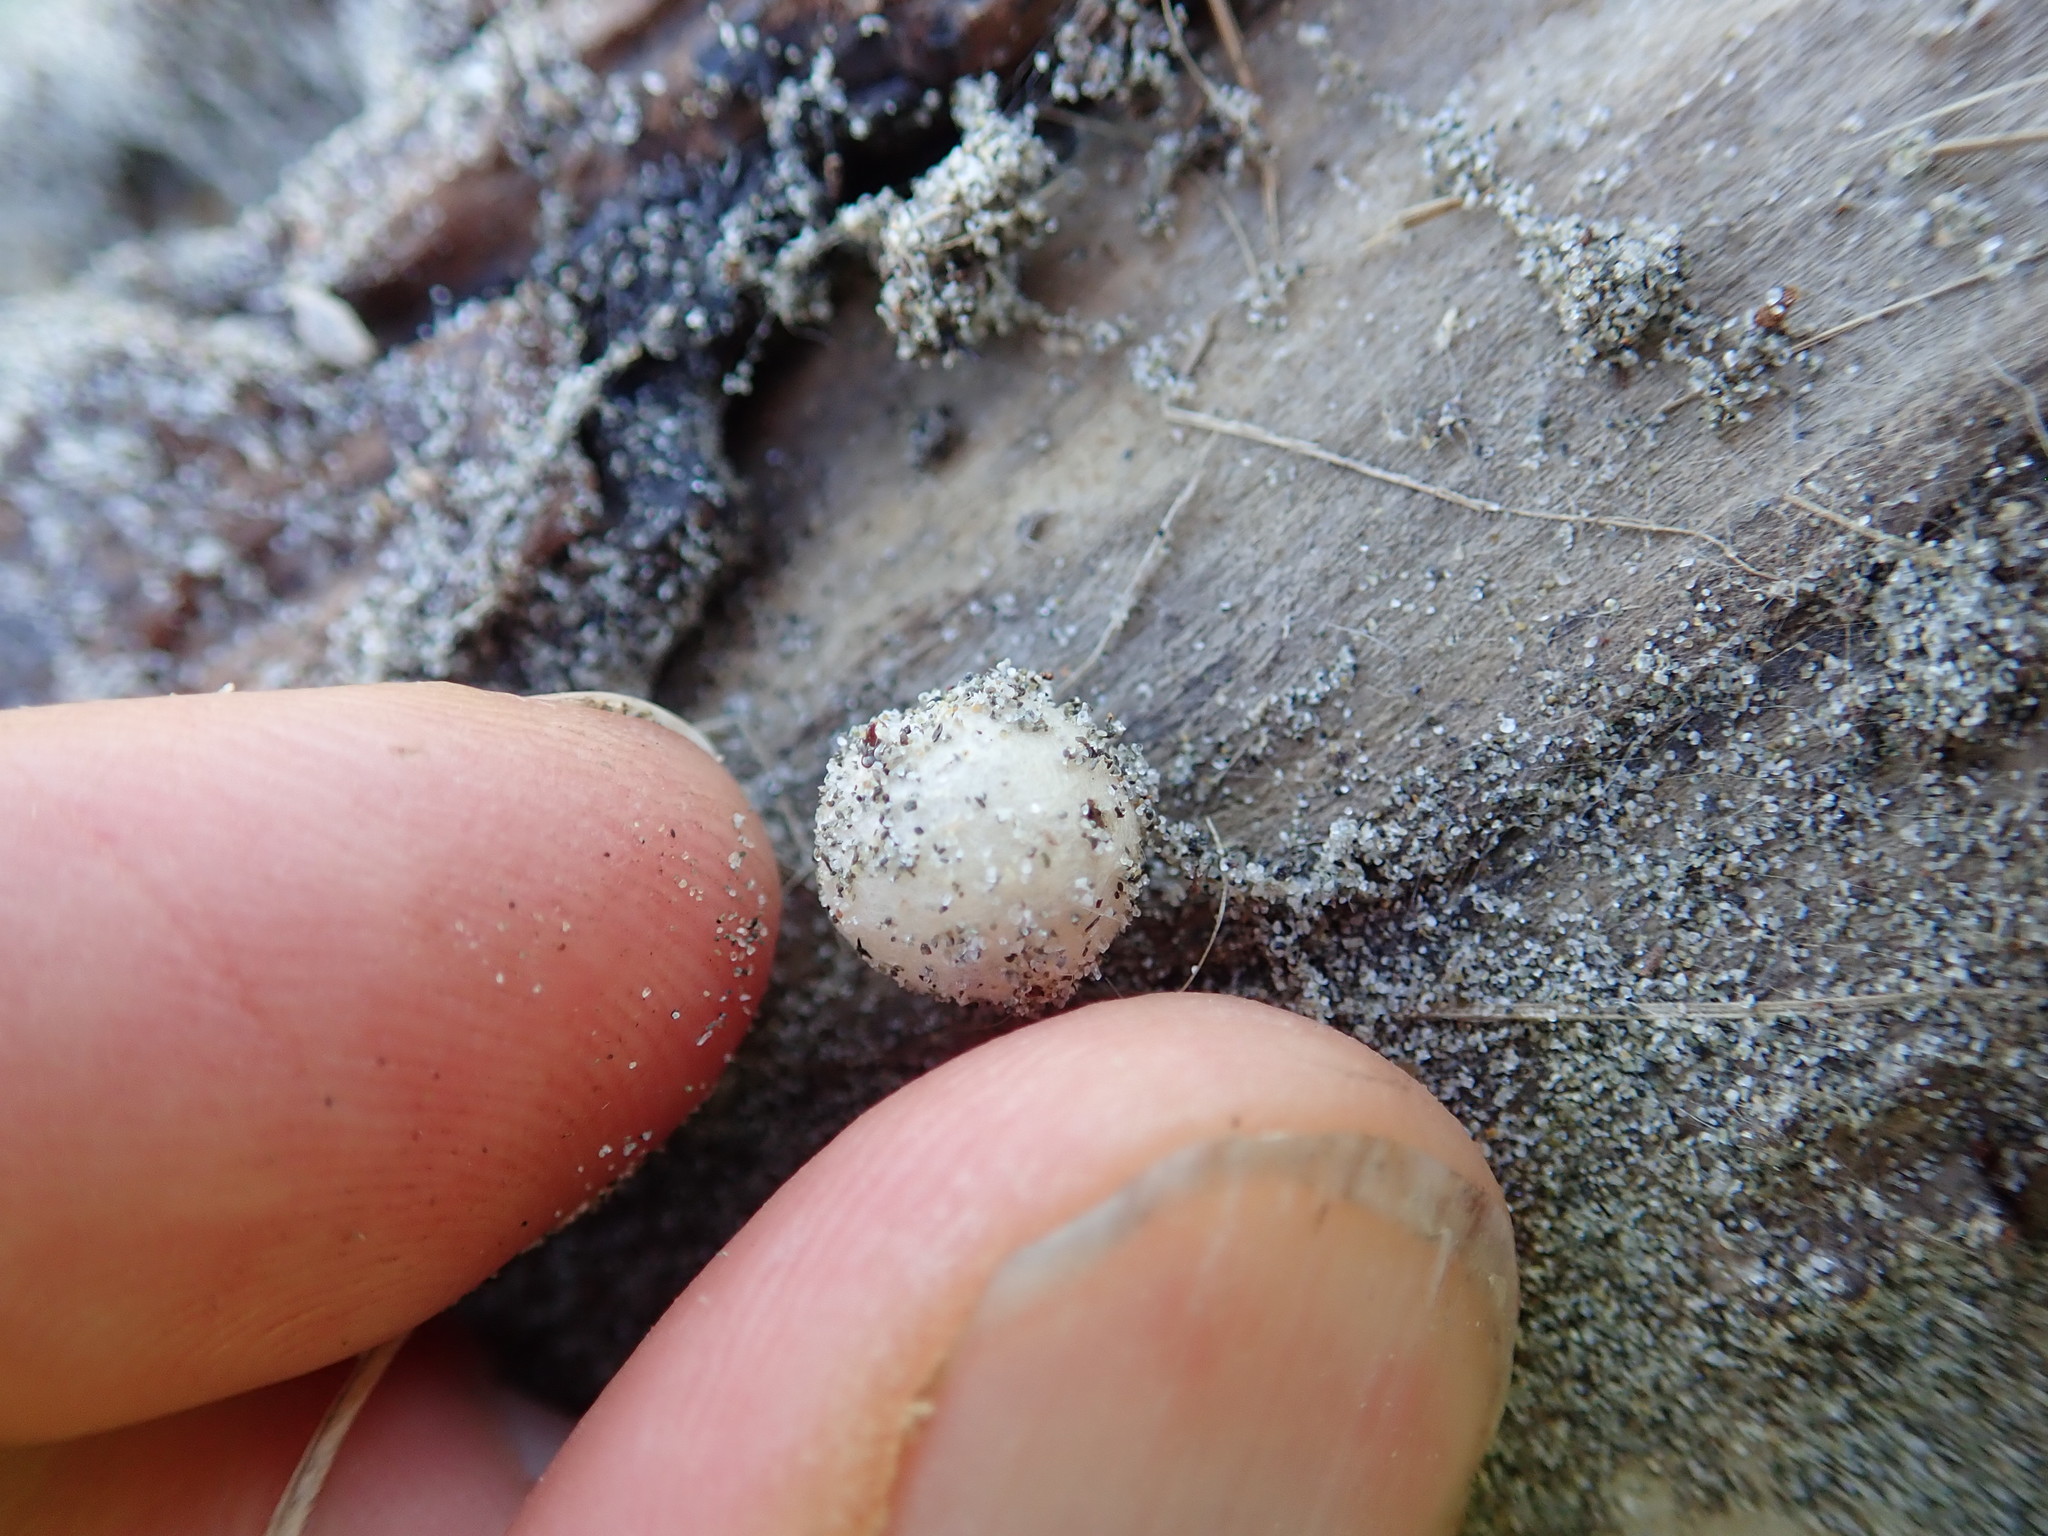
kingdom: Animalia
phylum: Arthropoda
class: Arachnida
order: Araneae
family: Thomisidae
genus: Sidymella
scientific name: Sidymella trapezia
